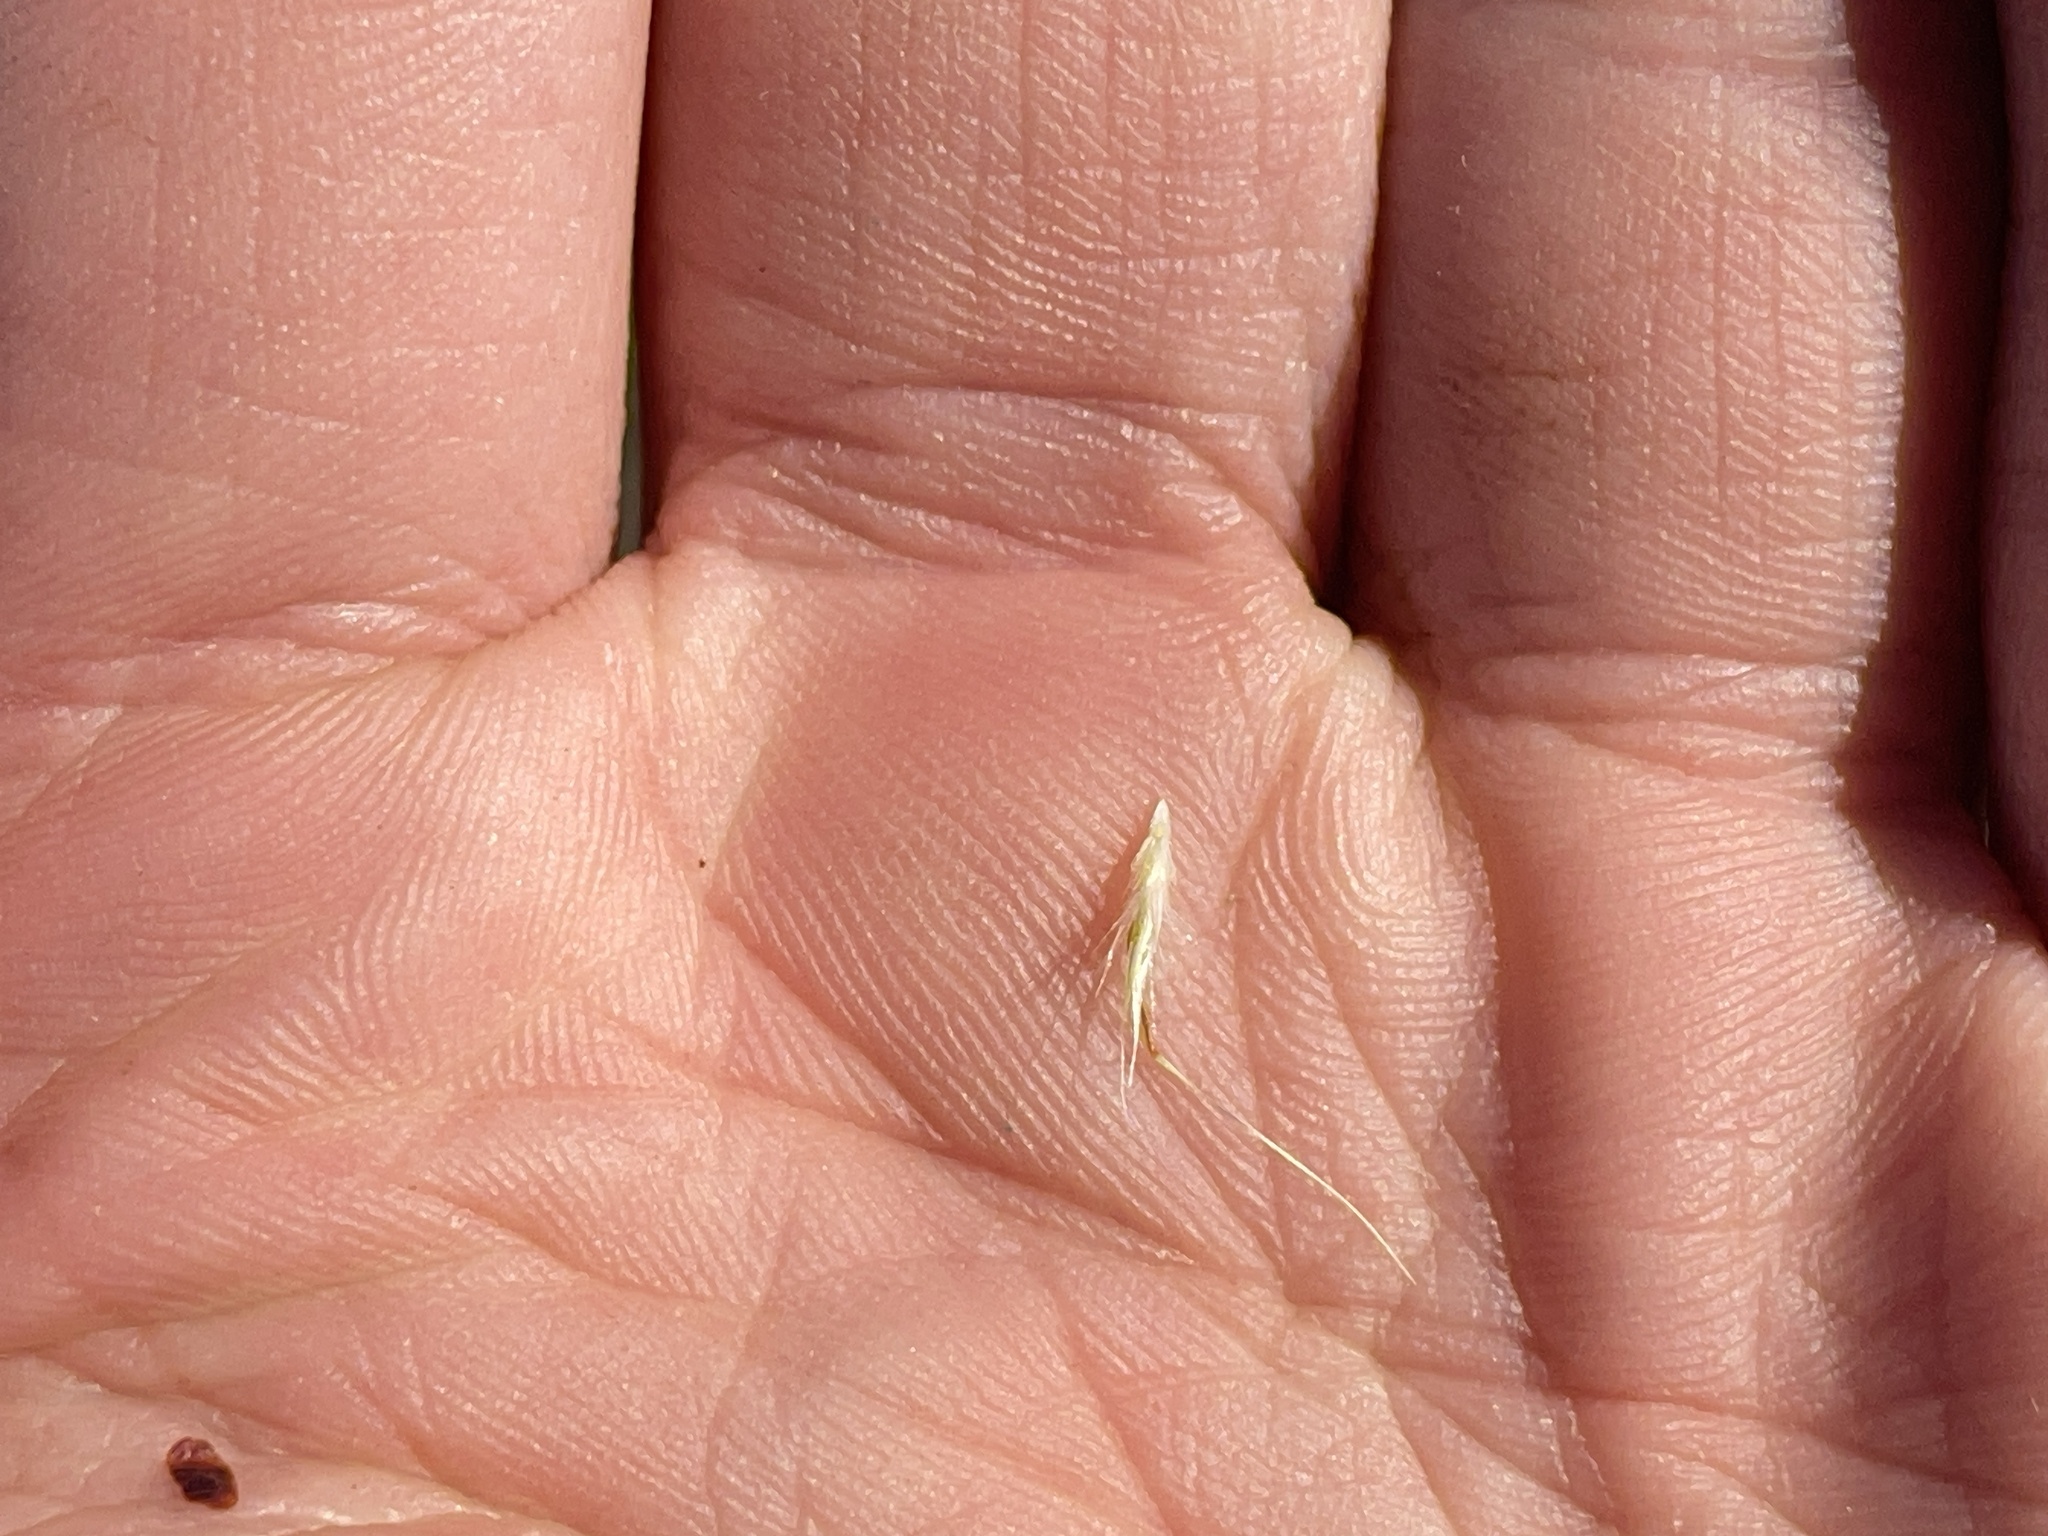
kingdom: Plantae
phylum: Tracheophyta
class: Liliopsida
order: Poales
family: Poaceae
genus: Rytidosperma
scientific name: Rytidosperma
